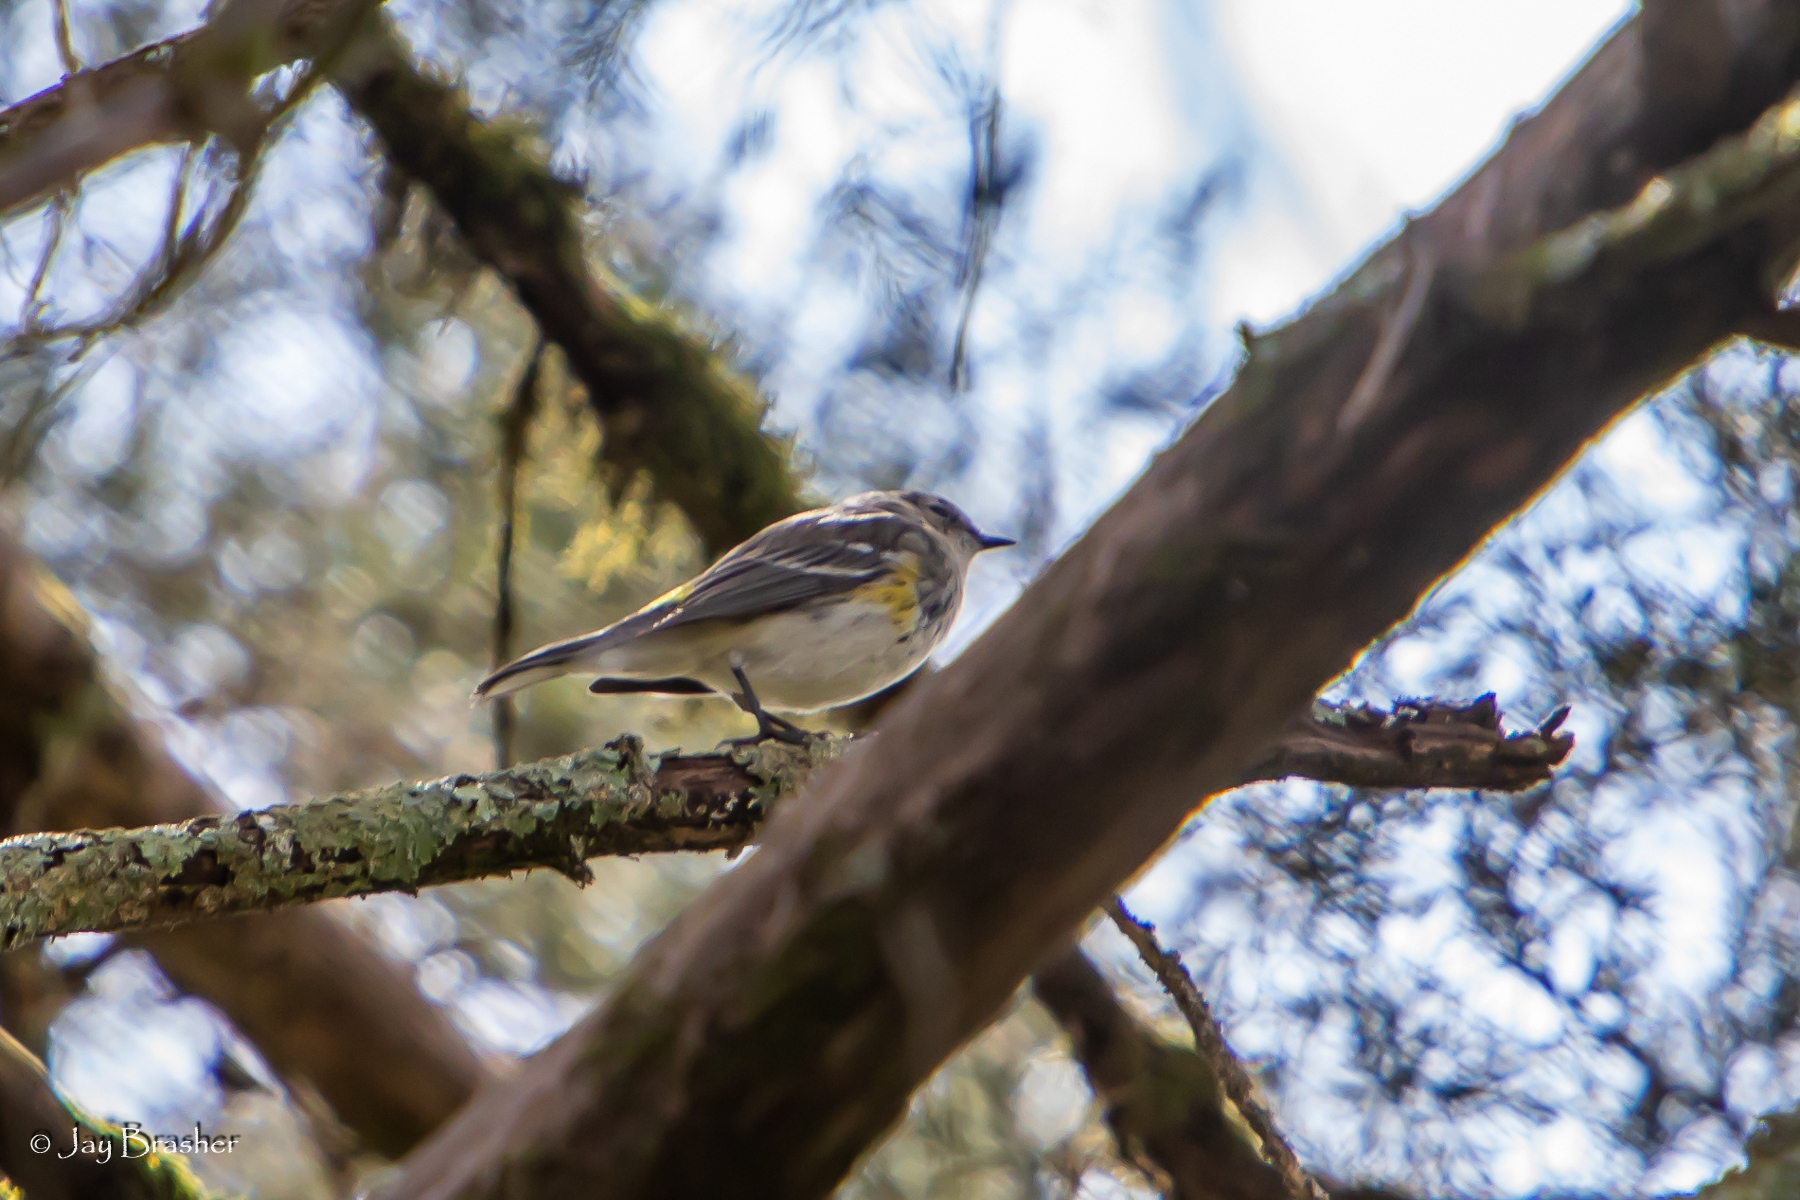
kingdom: Animalia
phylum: Chordata
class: Aves
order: Passeriformes
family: Parulidae
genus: Setophaga
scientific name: Setophaga coronata
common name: Myrtle warbler
